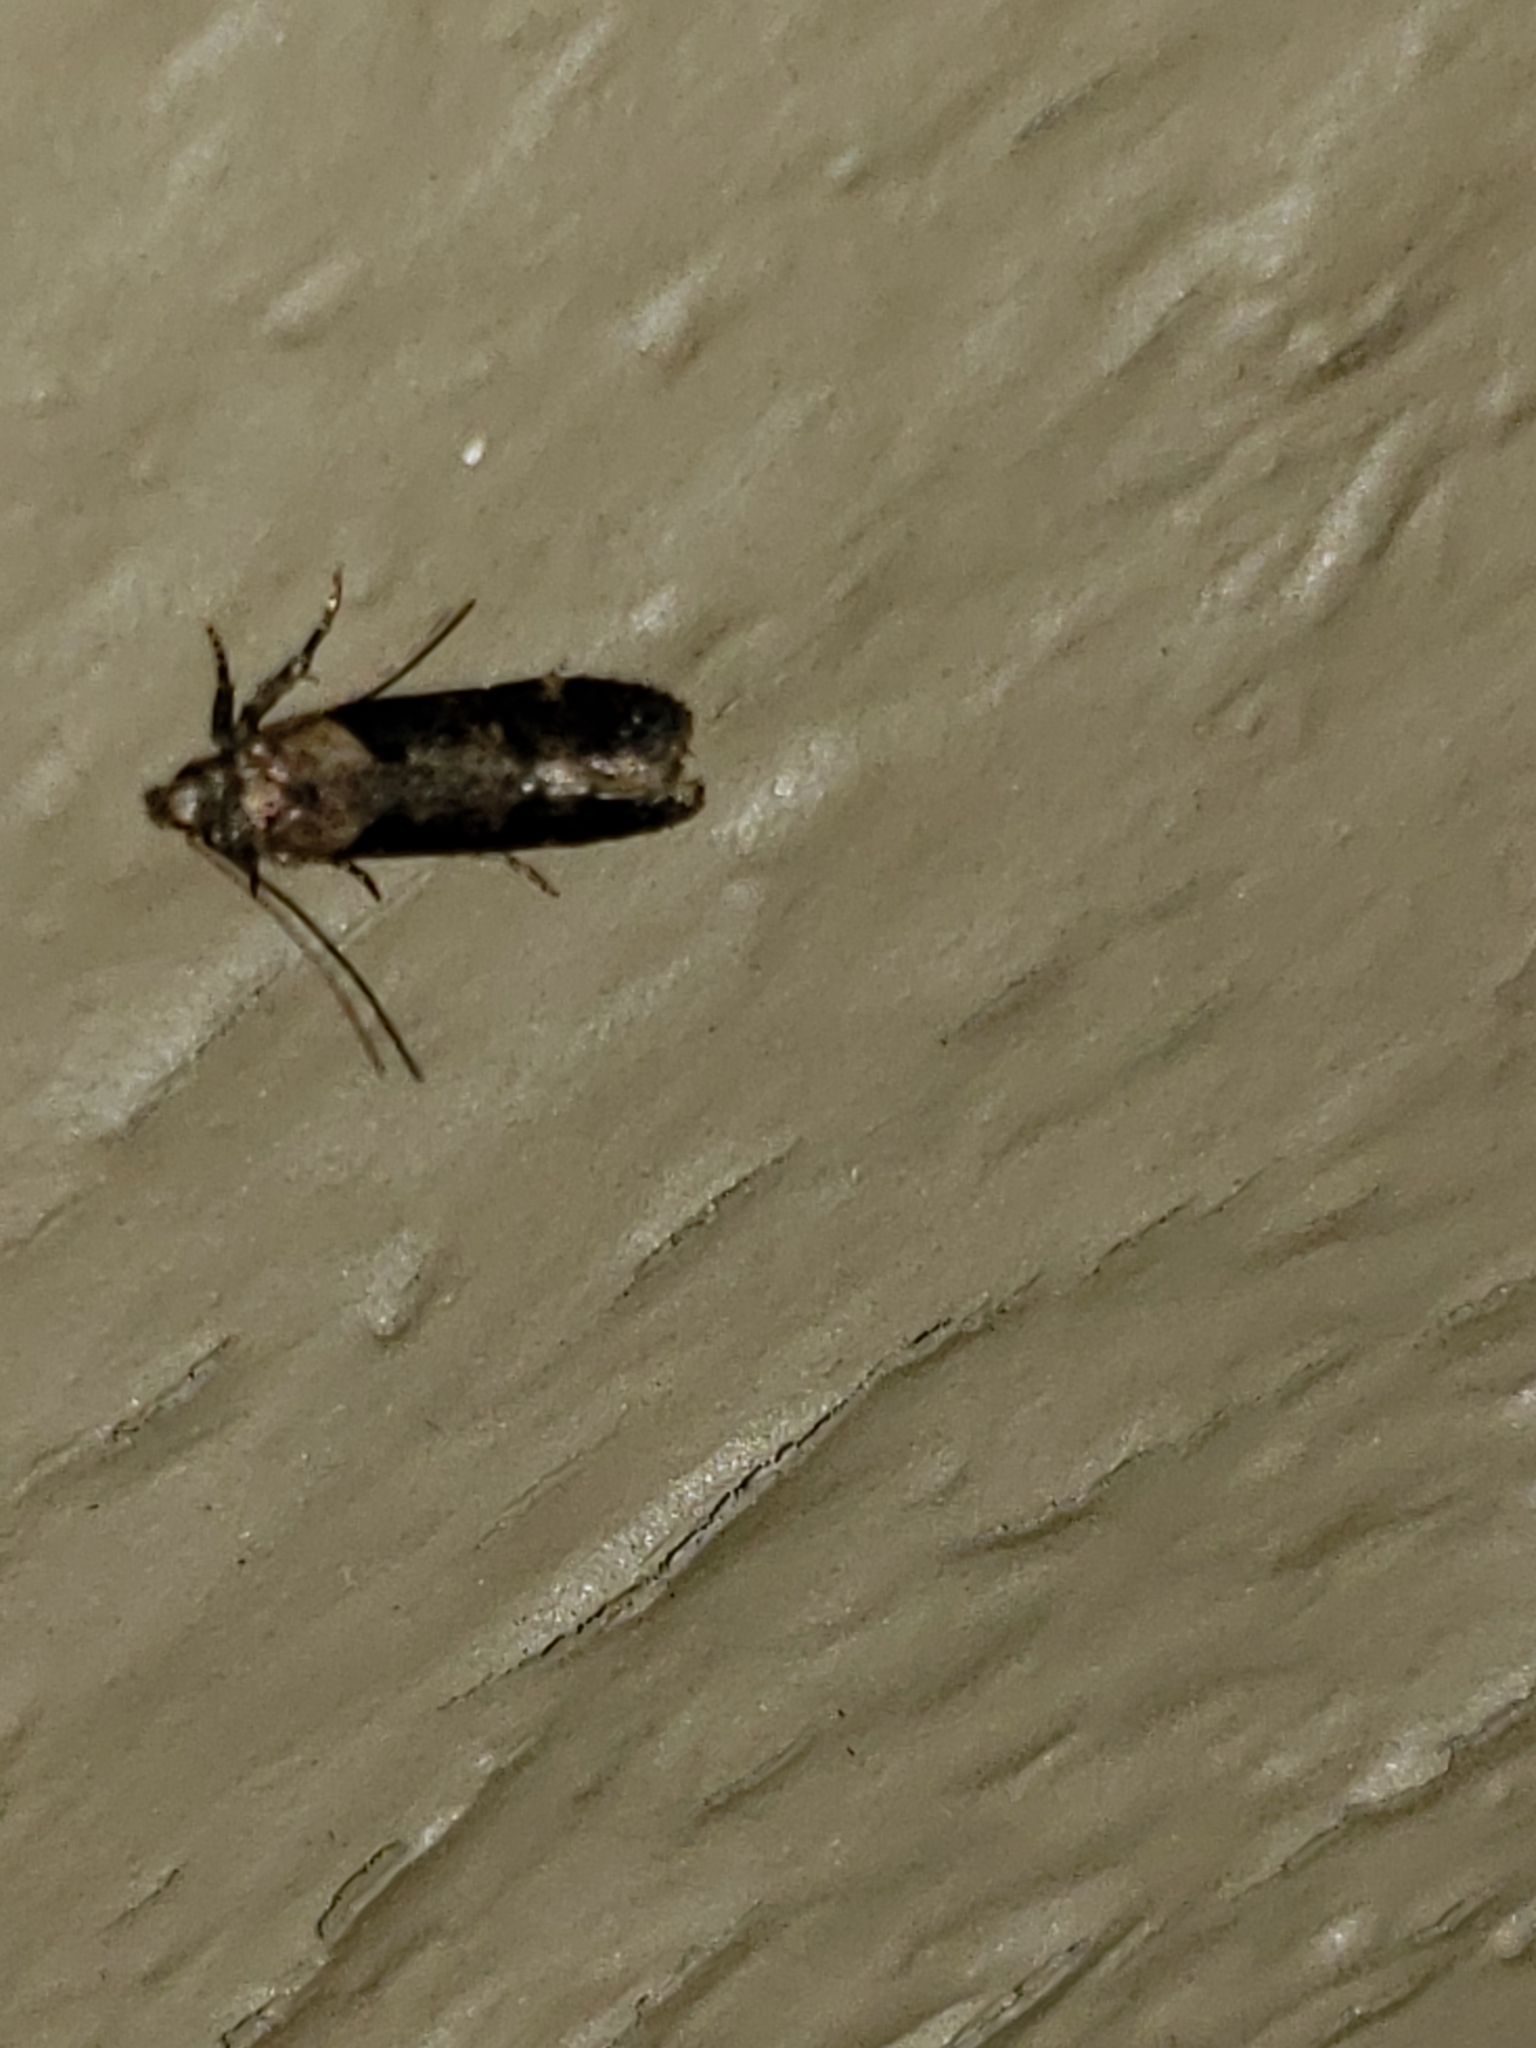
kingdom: Animalia
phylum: Arthropoda
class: Insecta
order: Lepidoptera
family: Gelechiidae
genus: Chionodes
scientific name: Chionodes mediofuscella
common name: Black-smudged chionodes moth
